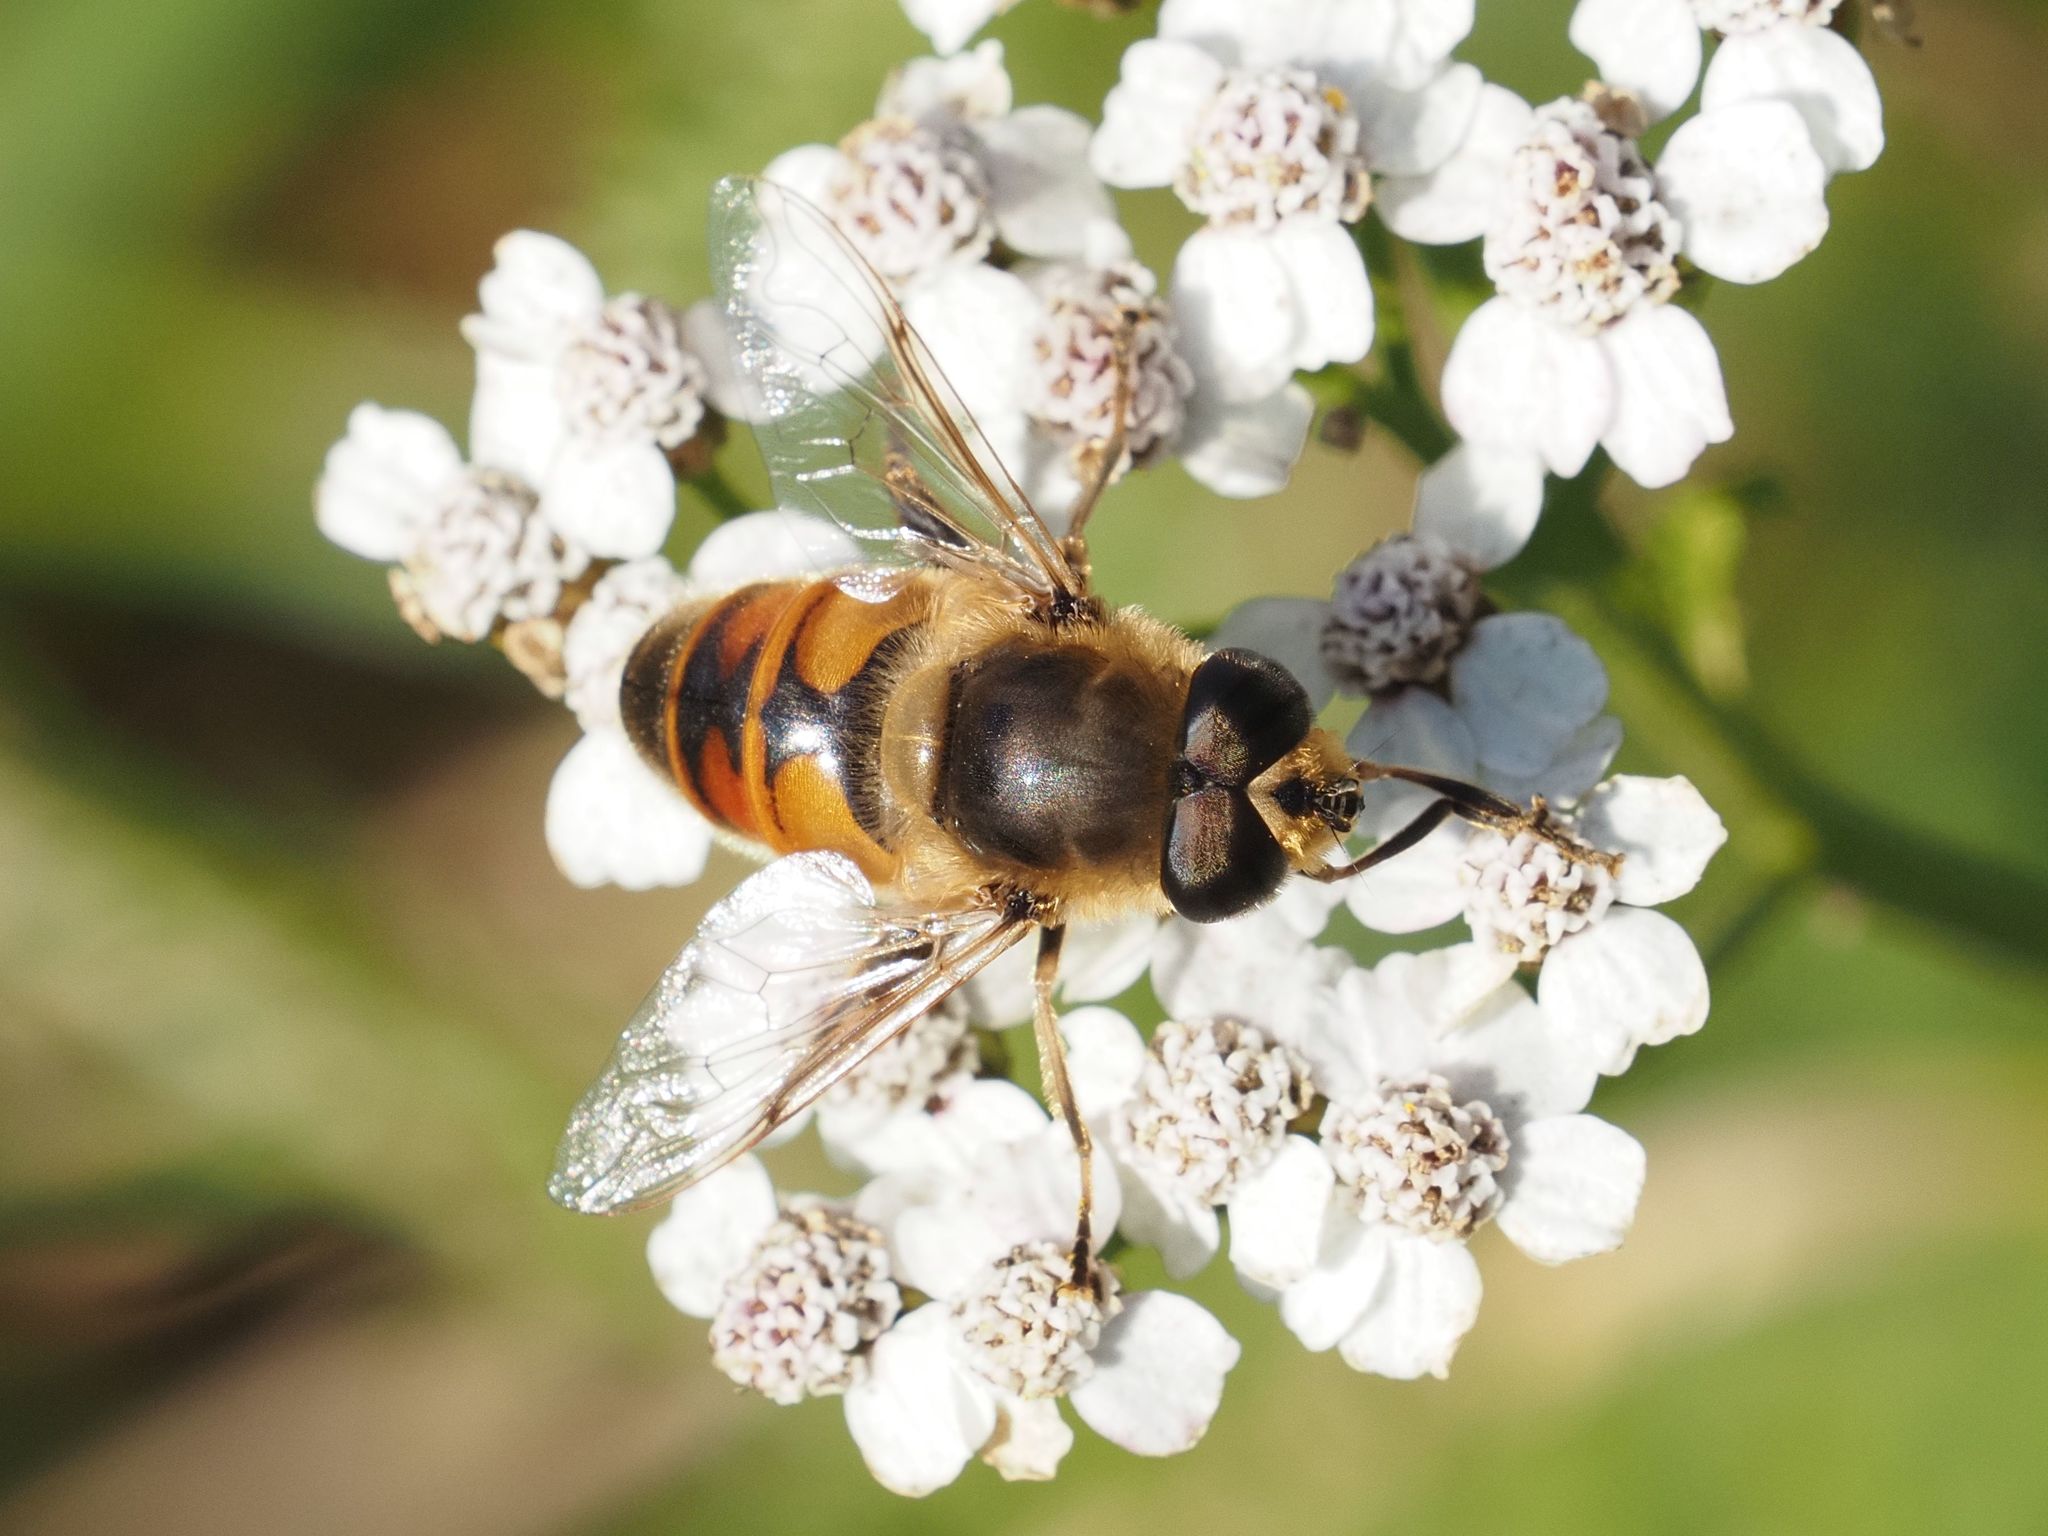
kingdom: Animalia
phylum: Arthropoda
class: Insecta
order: Diptera
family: Syrphidae
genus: Eristalis
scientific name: Eristalis tenax
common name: Drone fly
